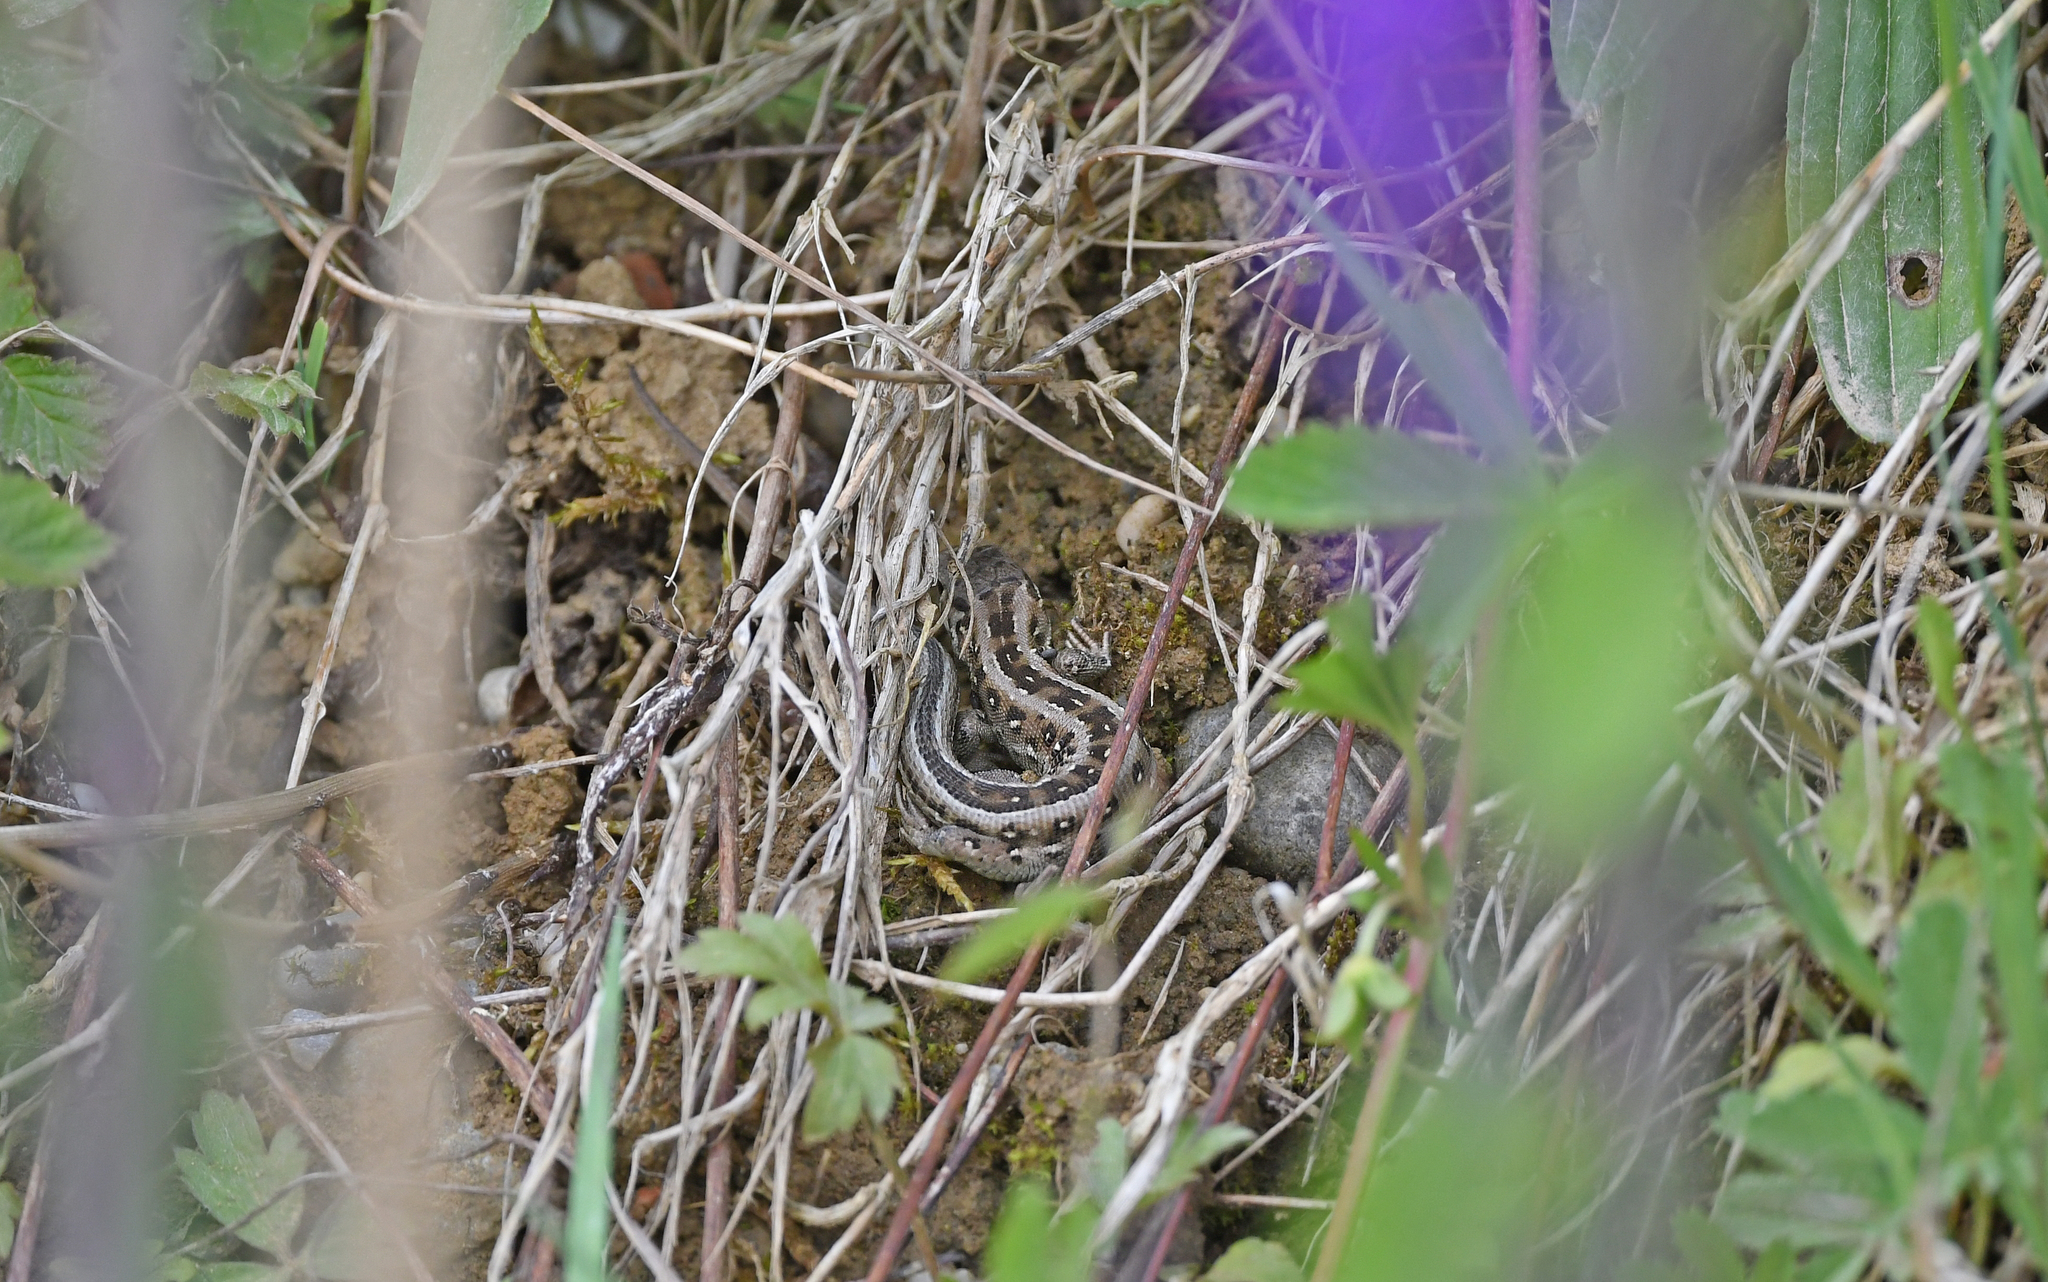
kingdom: Animalia
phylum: Chordata
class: Squamata
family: Lacertidae
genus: Lacerta
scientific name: Lacerta agilis
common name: Sand lizard
